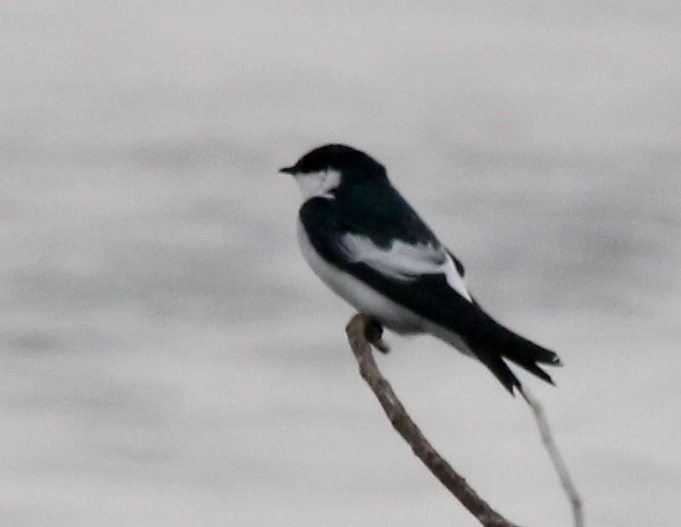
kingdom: Animalia
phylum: Chordata
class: Aves
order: Passeriformes
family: Hirundinidae
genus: Tachycineta
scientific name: Tachycineta albiventer
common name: White-winged swallow
